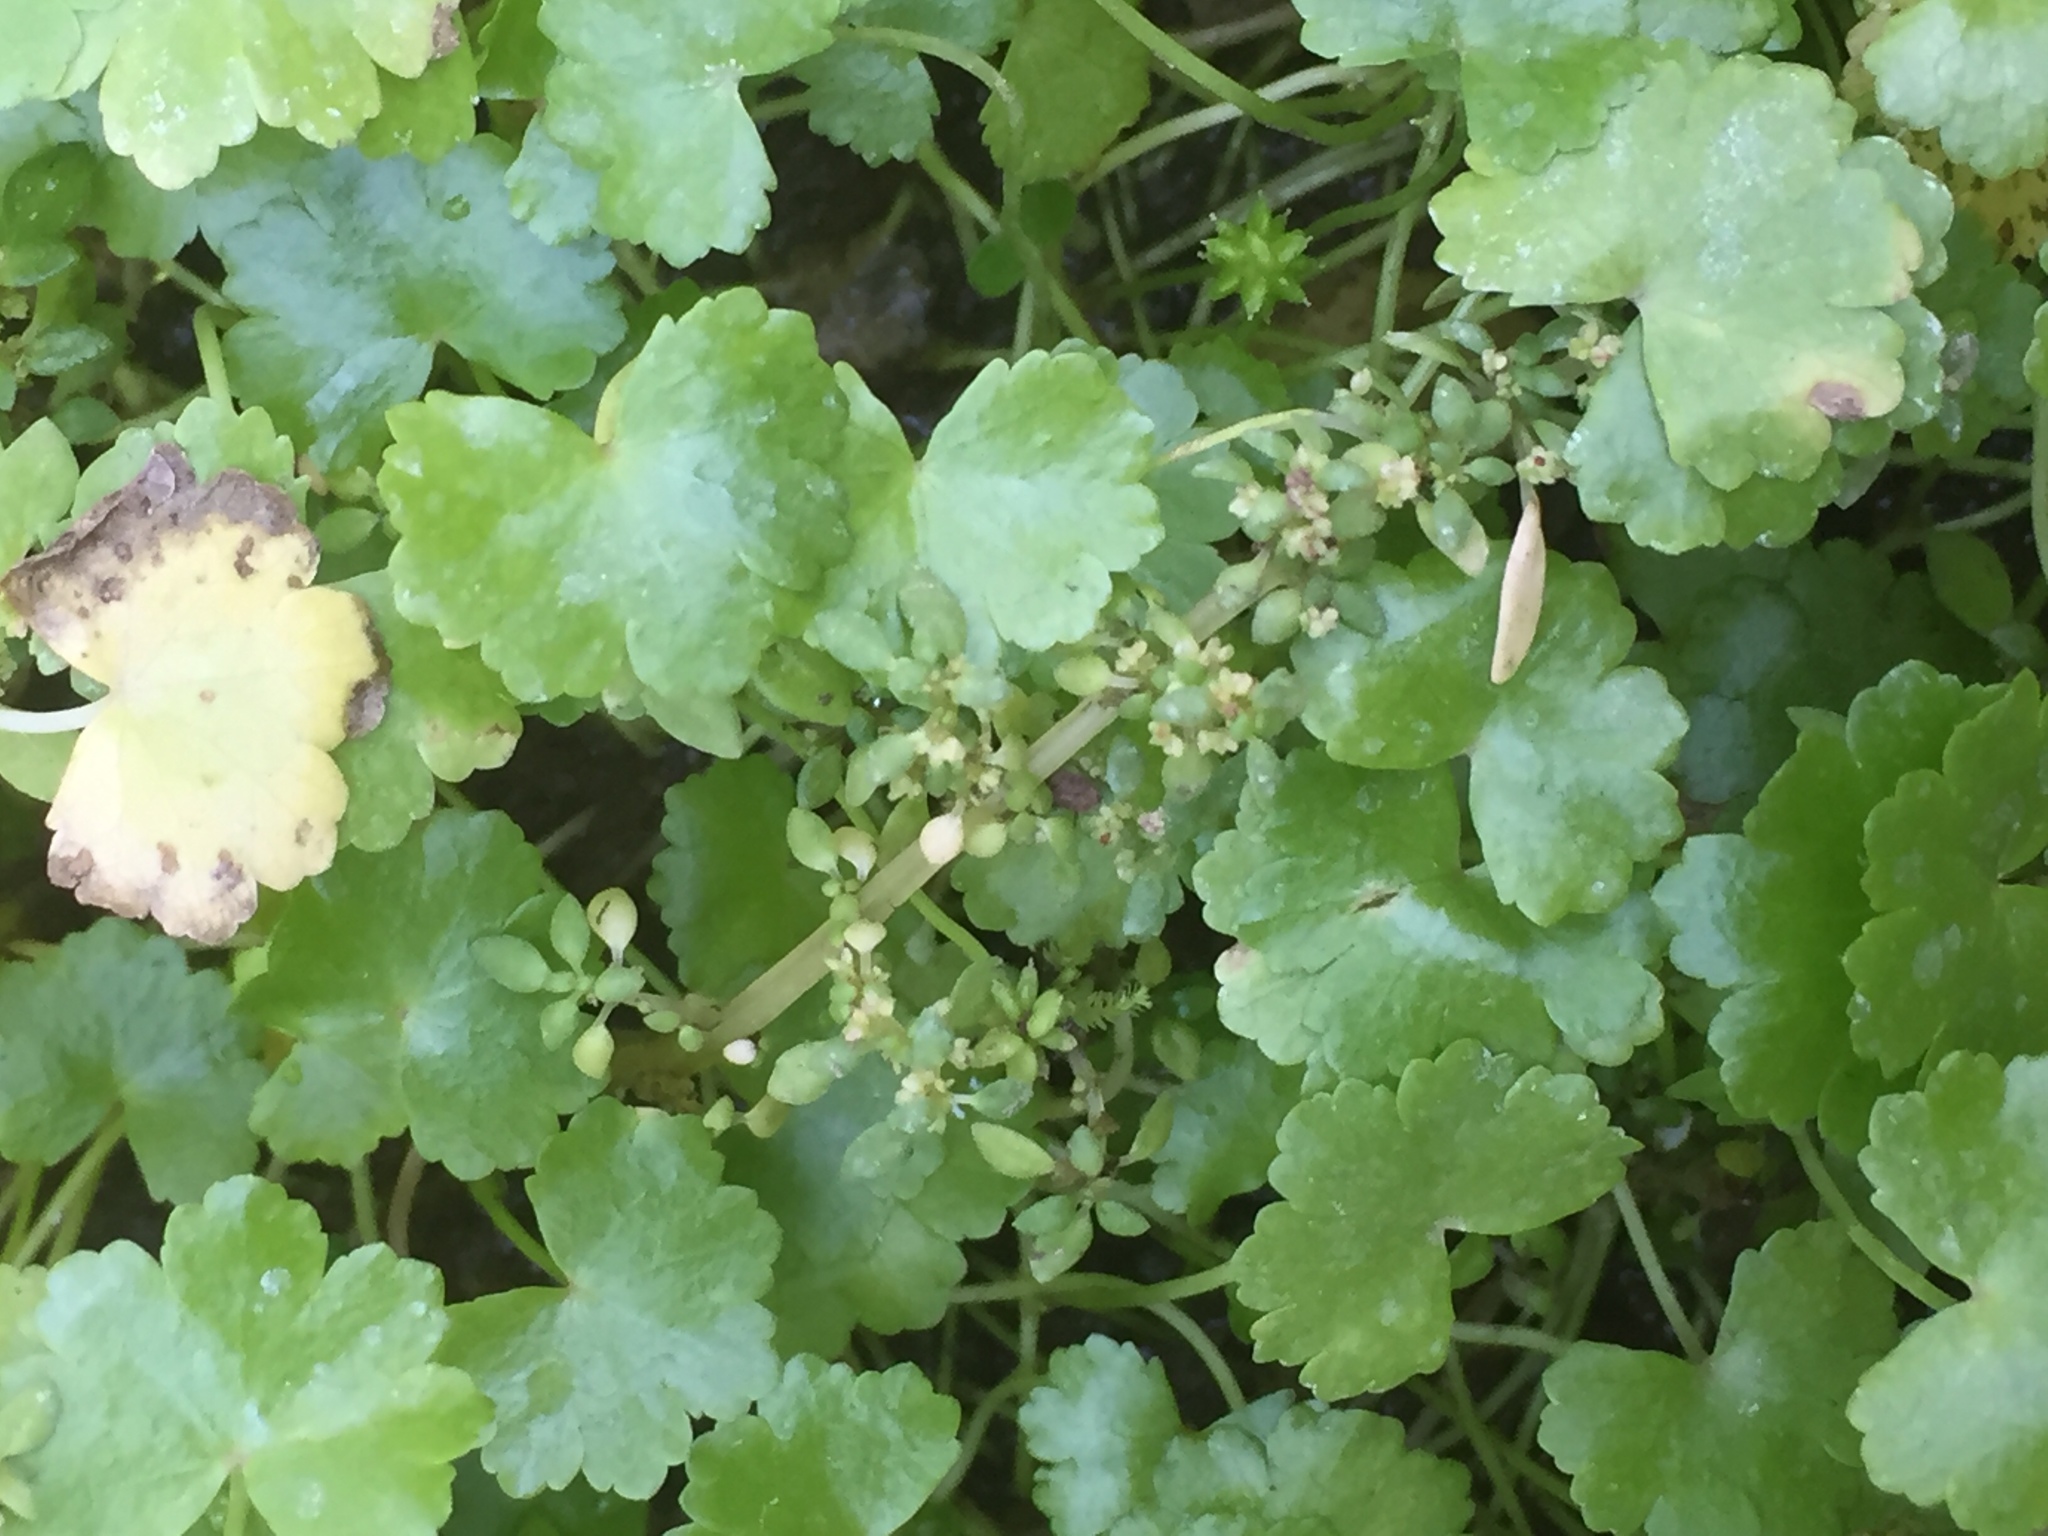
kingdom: Plantae
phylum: Tracheophyta
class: Magnoliopsida
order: Rosales
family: Urticaceae
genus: Pilea
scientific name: Pilea microphylla
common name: Artillery-plant
